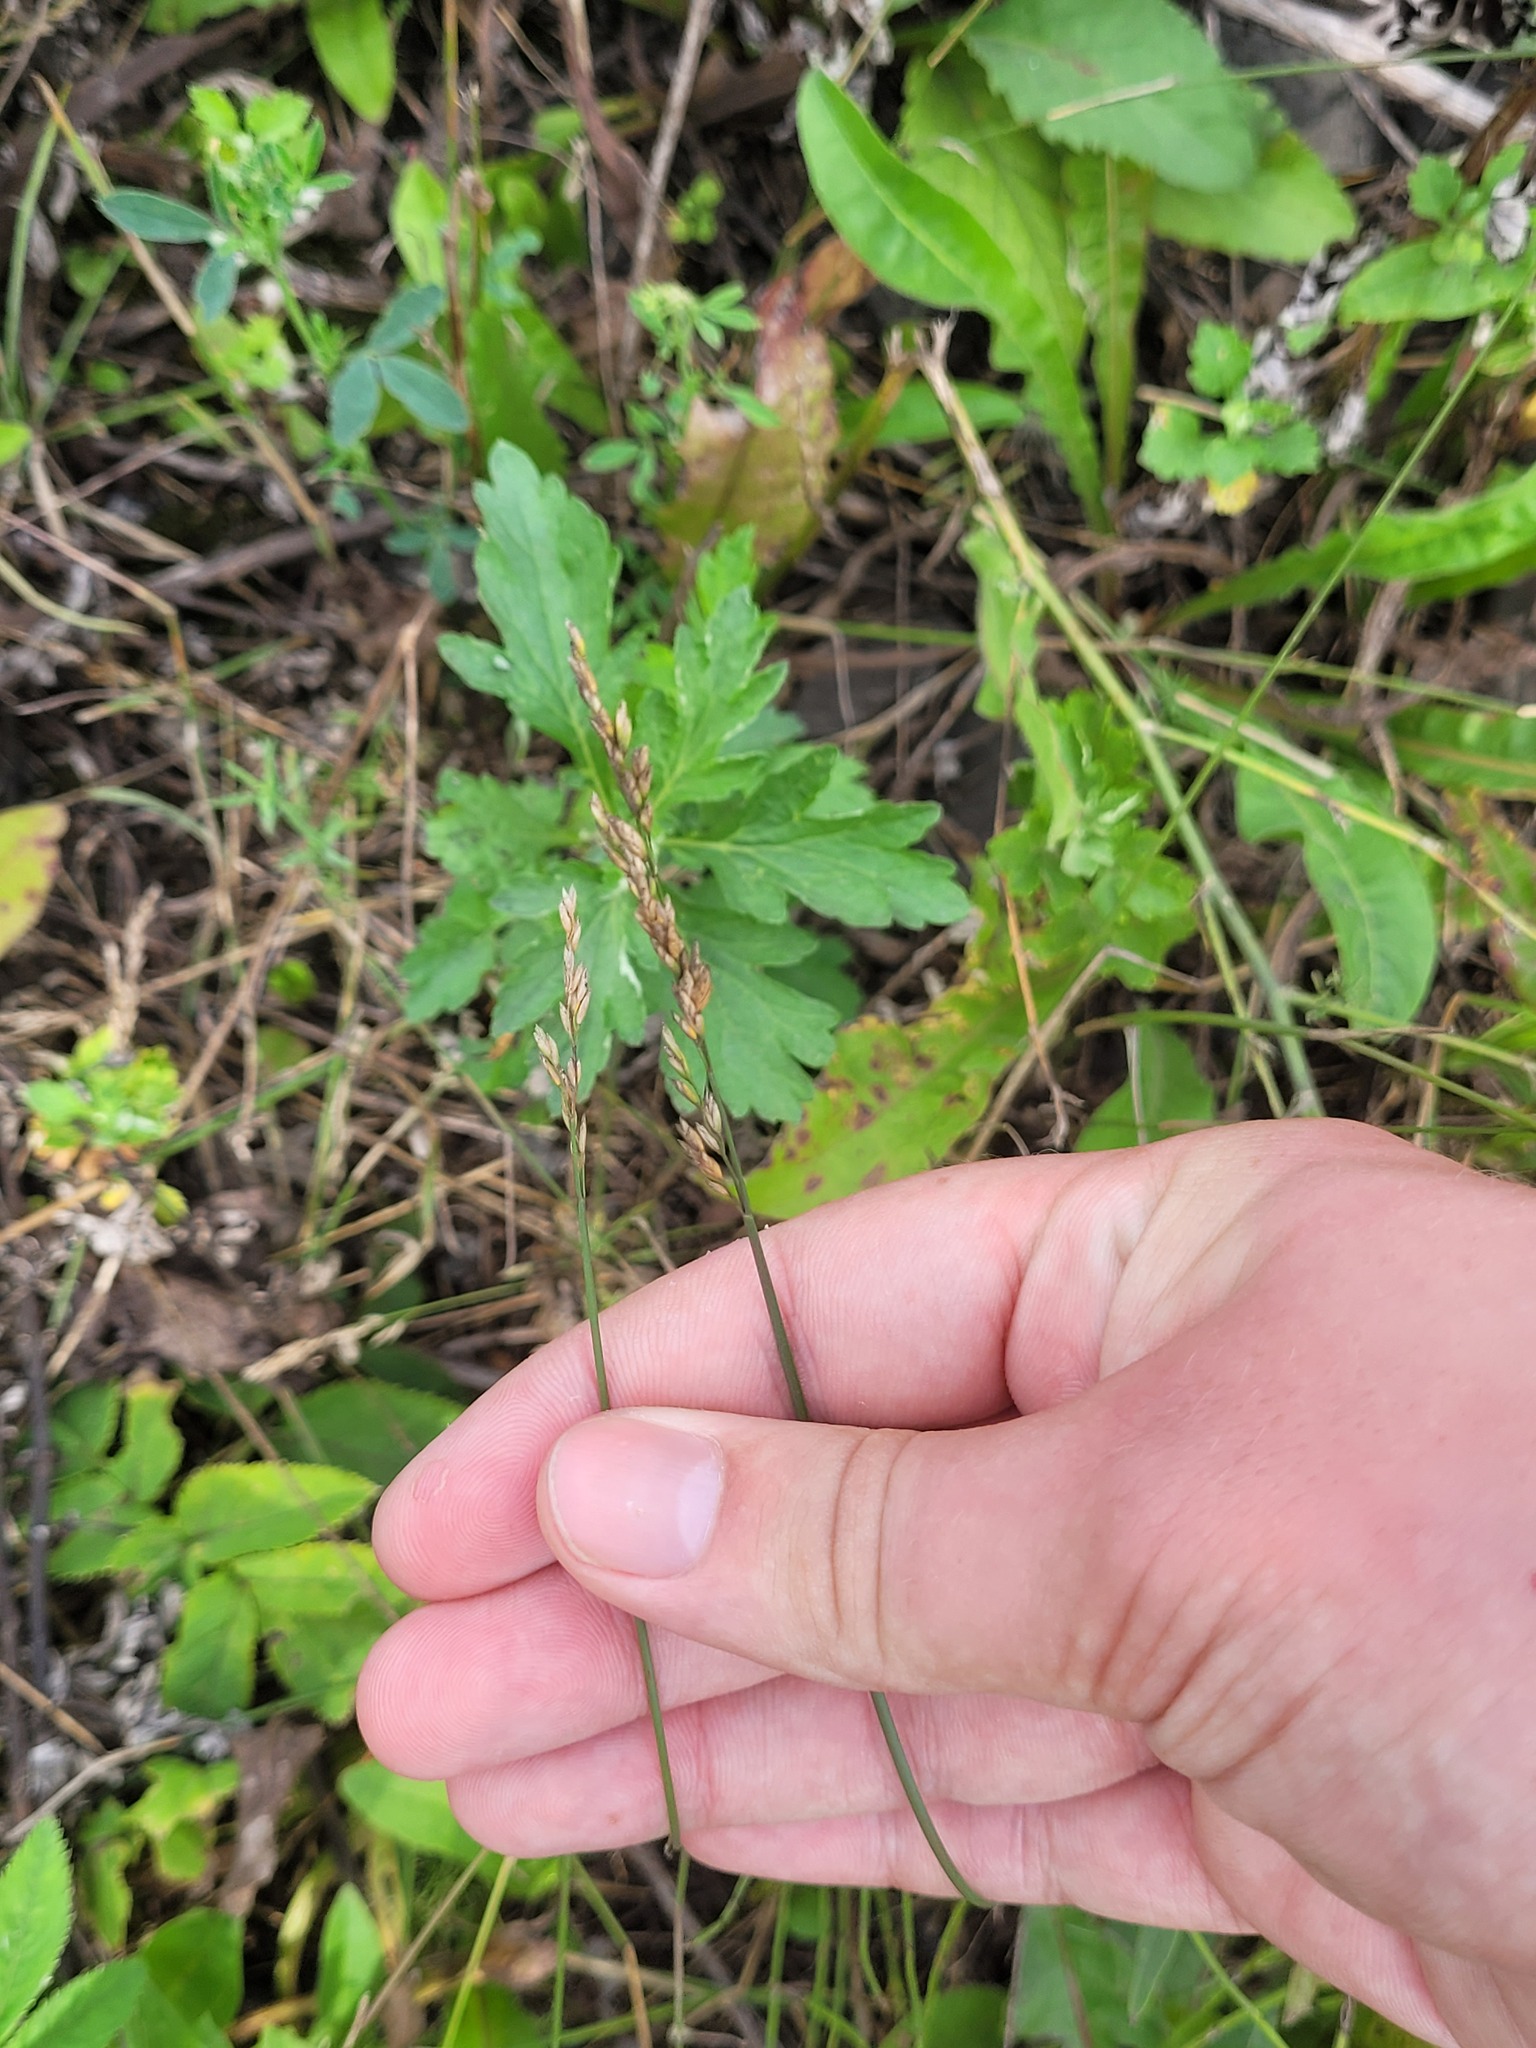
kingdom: Plantae
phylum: Tracheophyta
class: Liliopsida
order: Poales
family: Poaceae
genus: Poa
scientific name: Poa compressa
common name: Canada bluegrass
